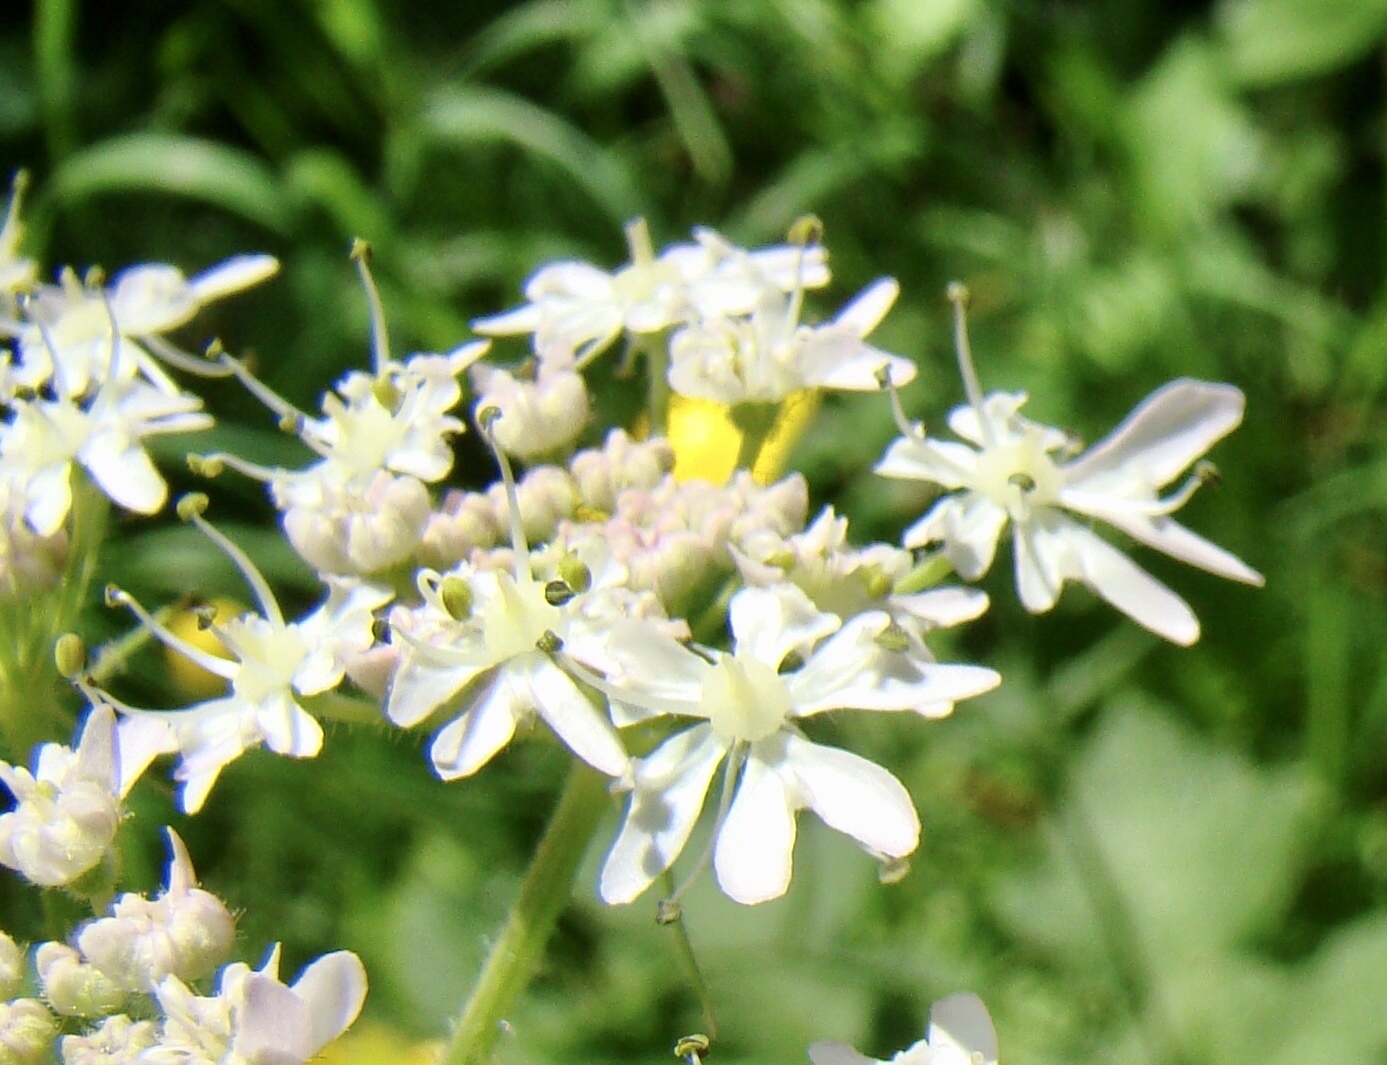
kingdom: Plantae
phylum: Tracheophyta
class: Magnoliopsida
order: Apiales
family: Apiaceae
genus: Heracleum
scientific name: Heracleum sphondylium
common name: Hogweed
